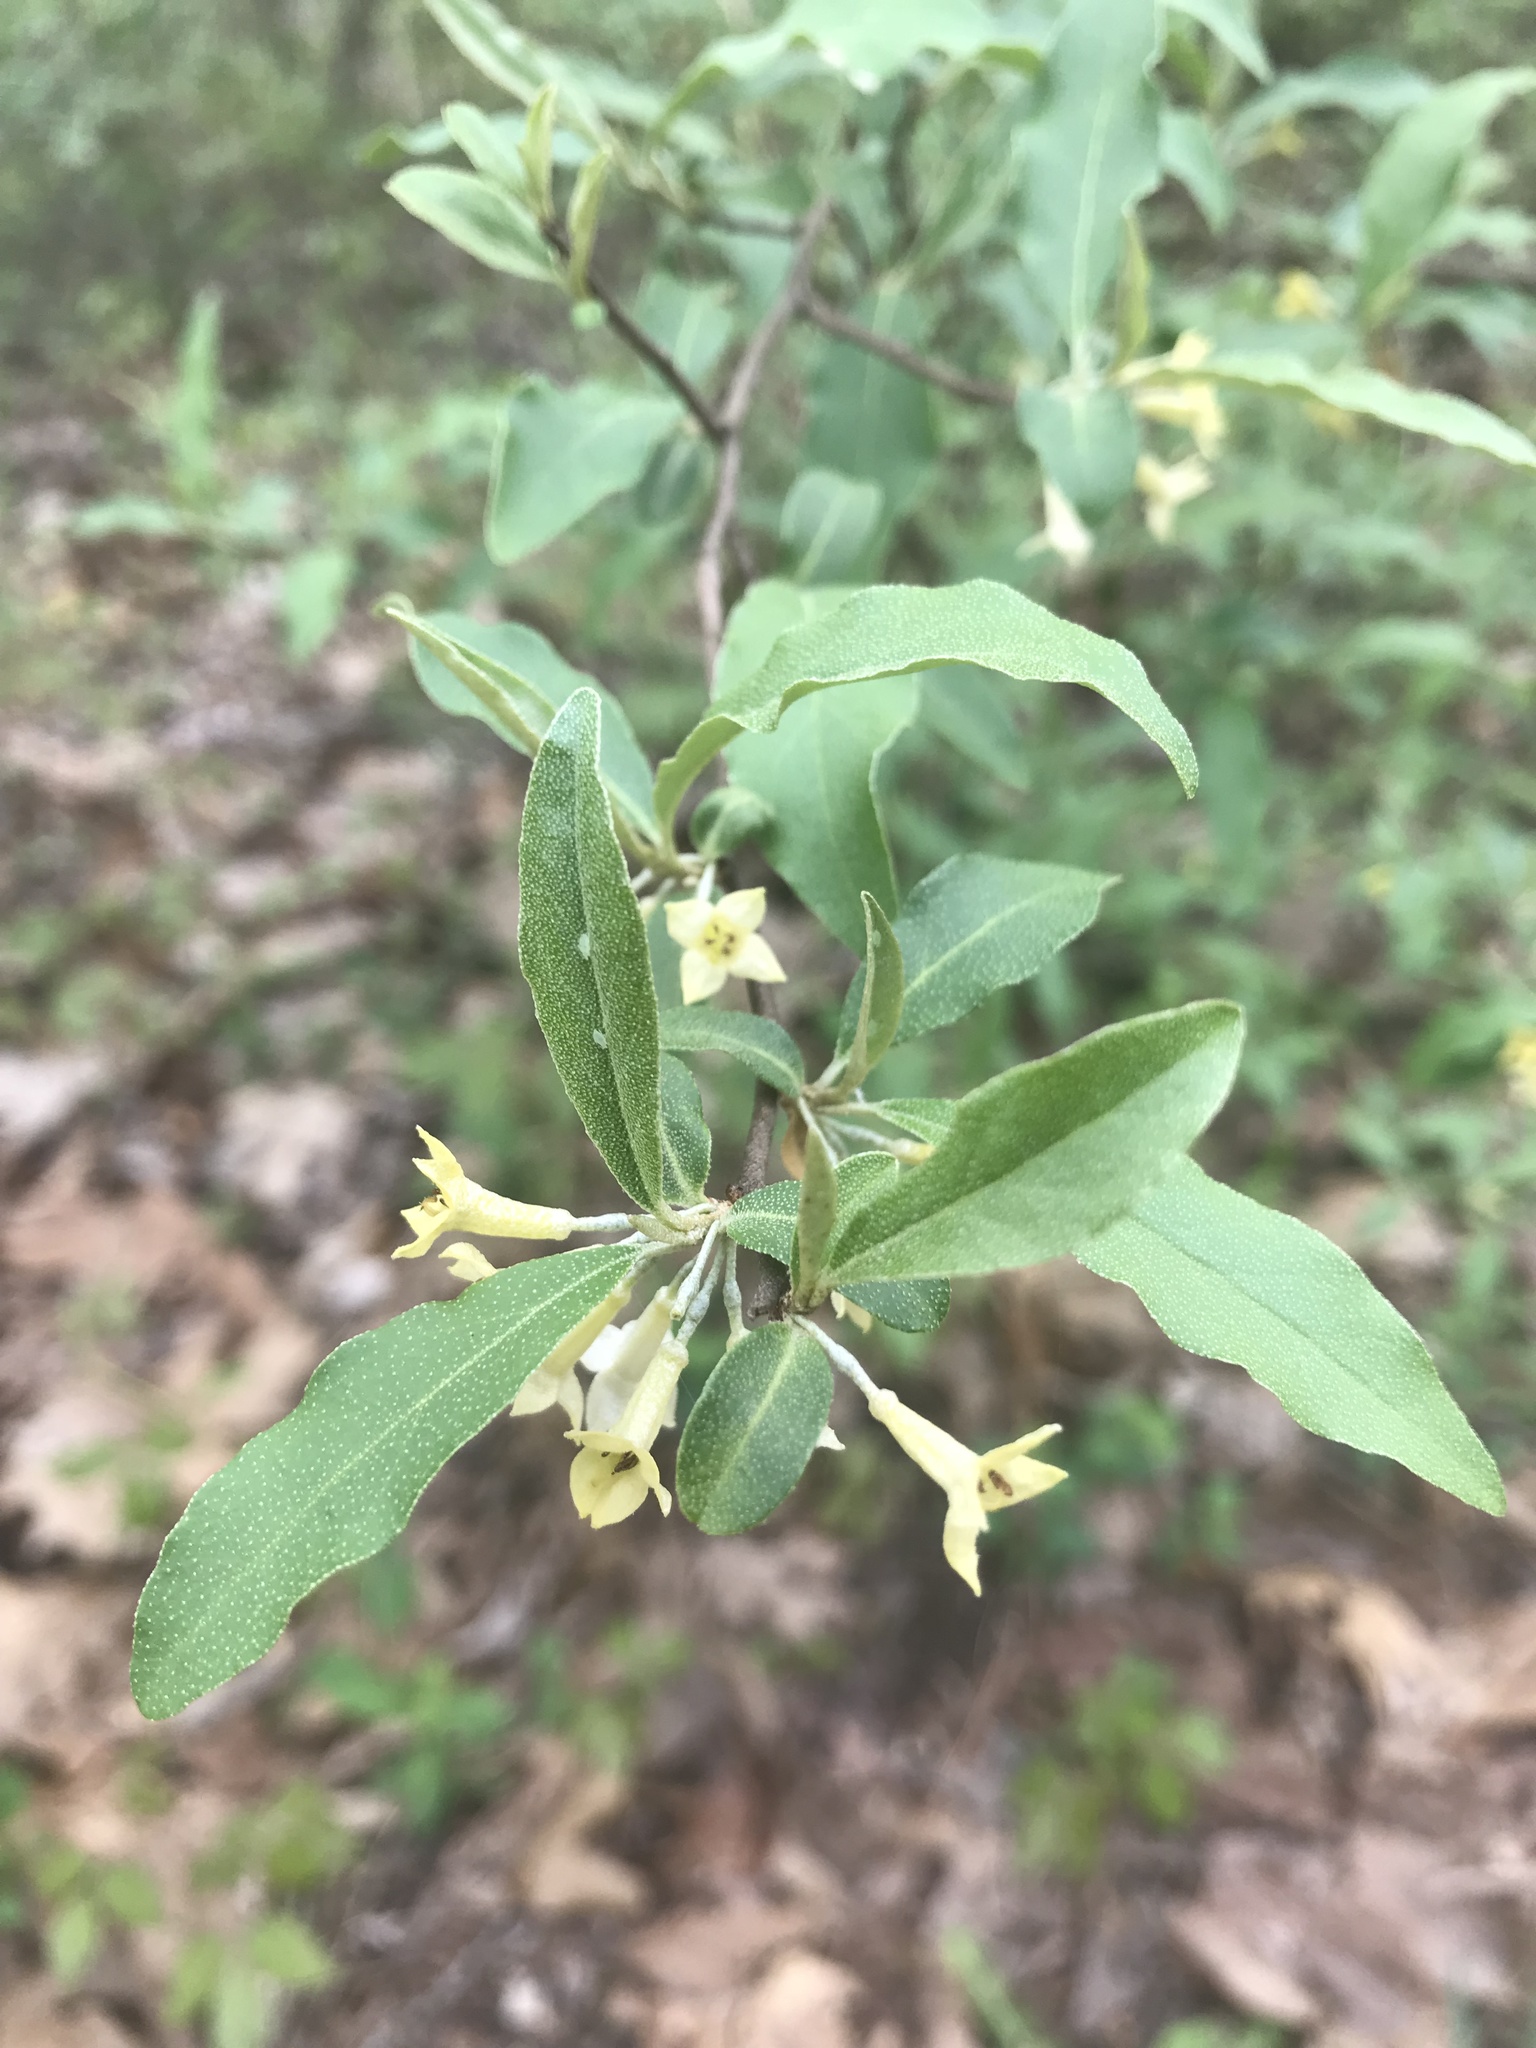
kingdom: Plantae
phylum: Tracheophyta
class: Magnoliopsida
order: Rosales
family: Elaeagnaceae
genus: Elaeagnus
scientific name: Elaeagnus umbellata
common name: Autumn olive
